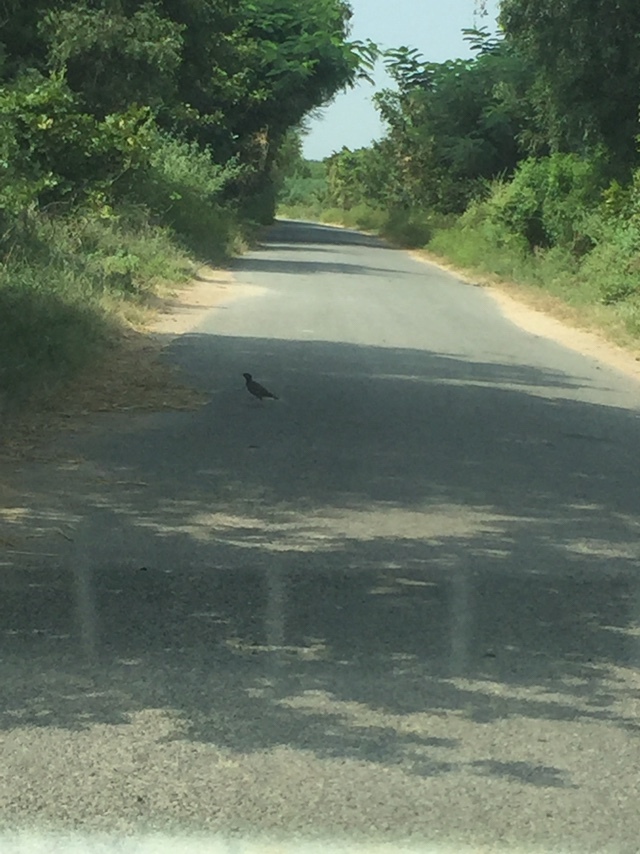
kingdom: Animalia
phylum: Chordata
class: Aves
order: Passeriformes
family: Sturnidae
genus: Acridotheres
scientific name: Acridotheres tristis
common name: Common myna
